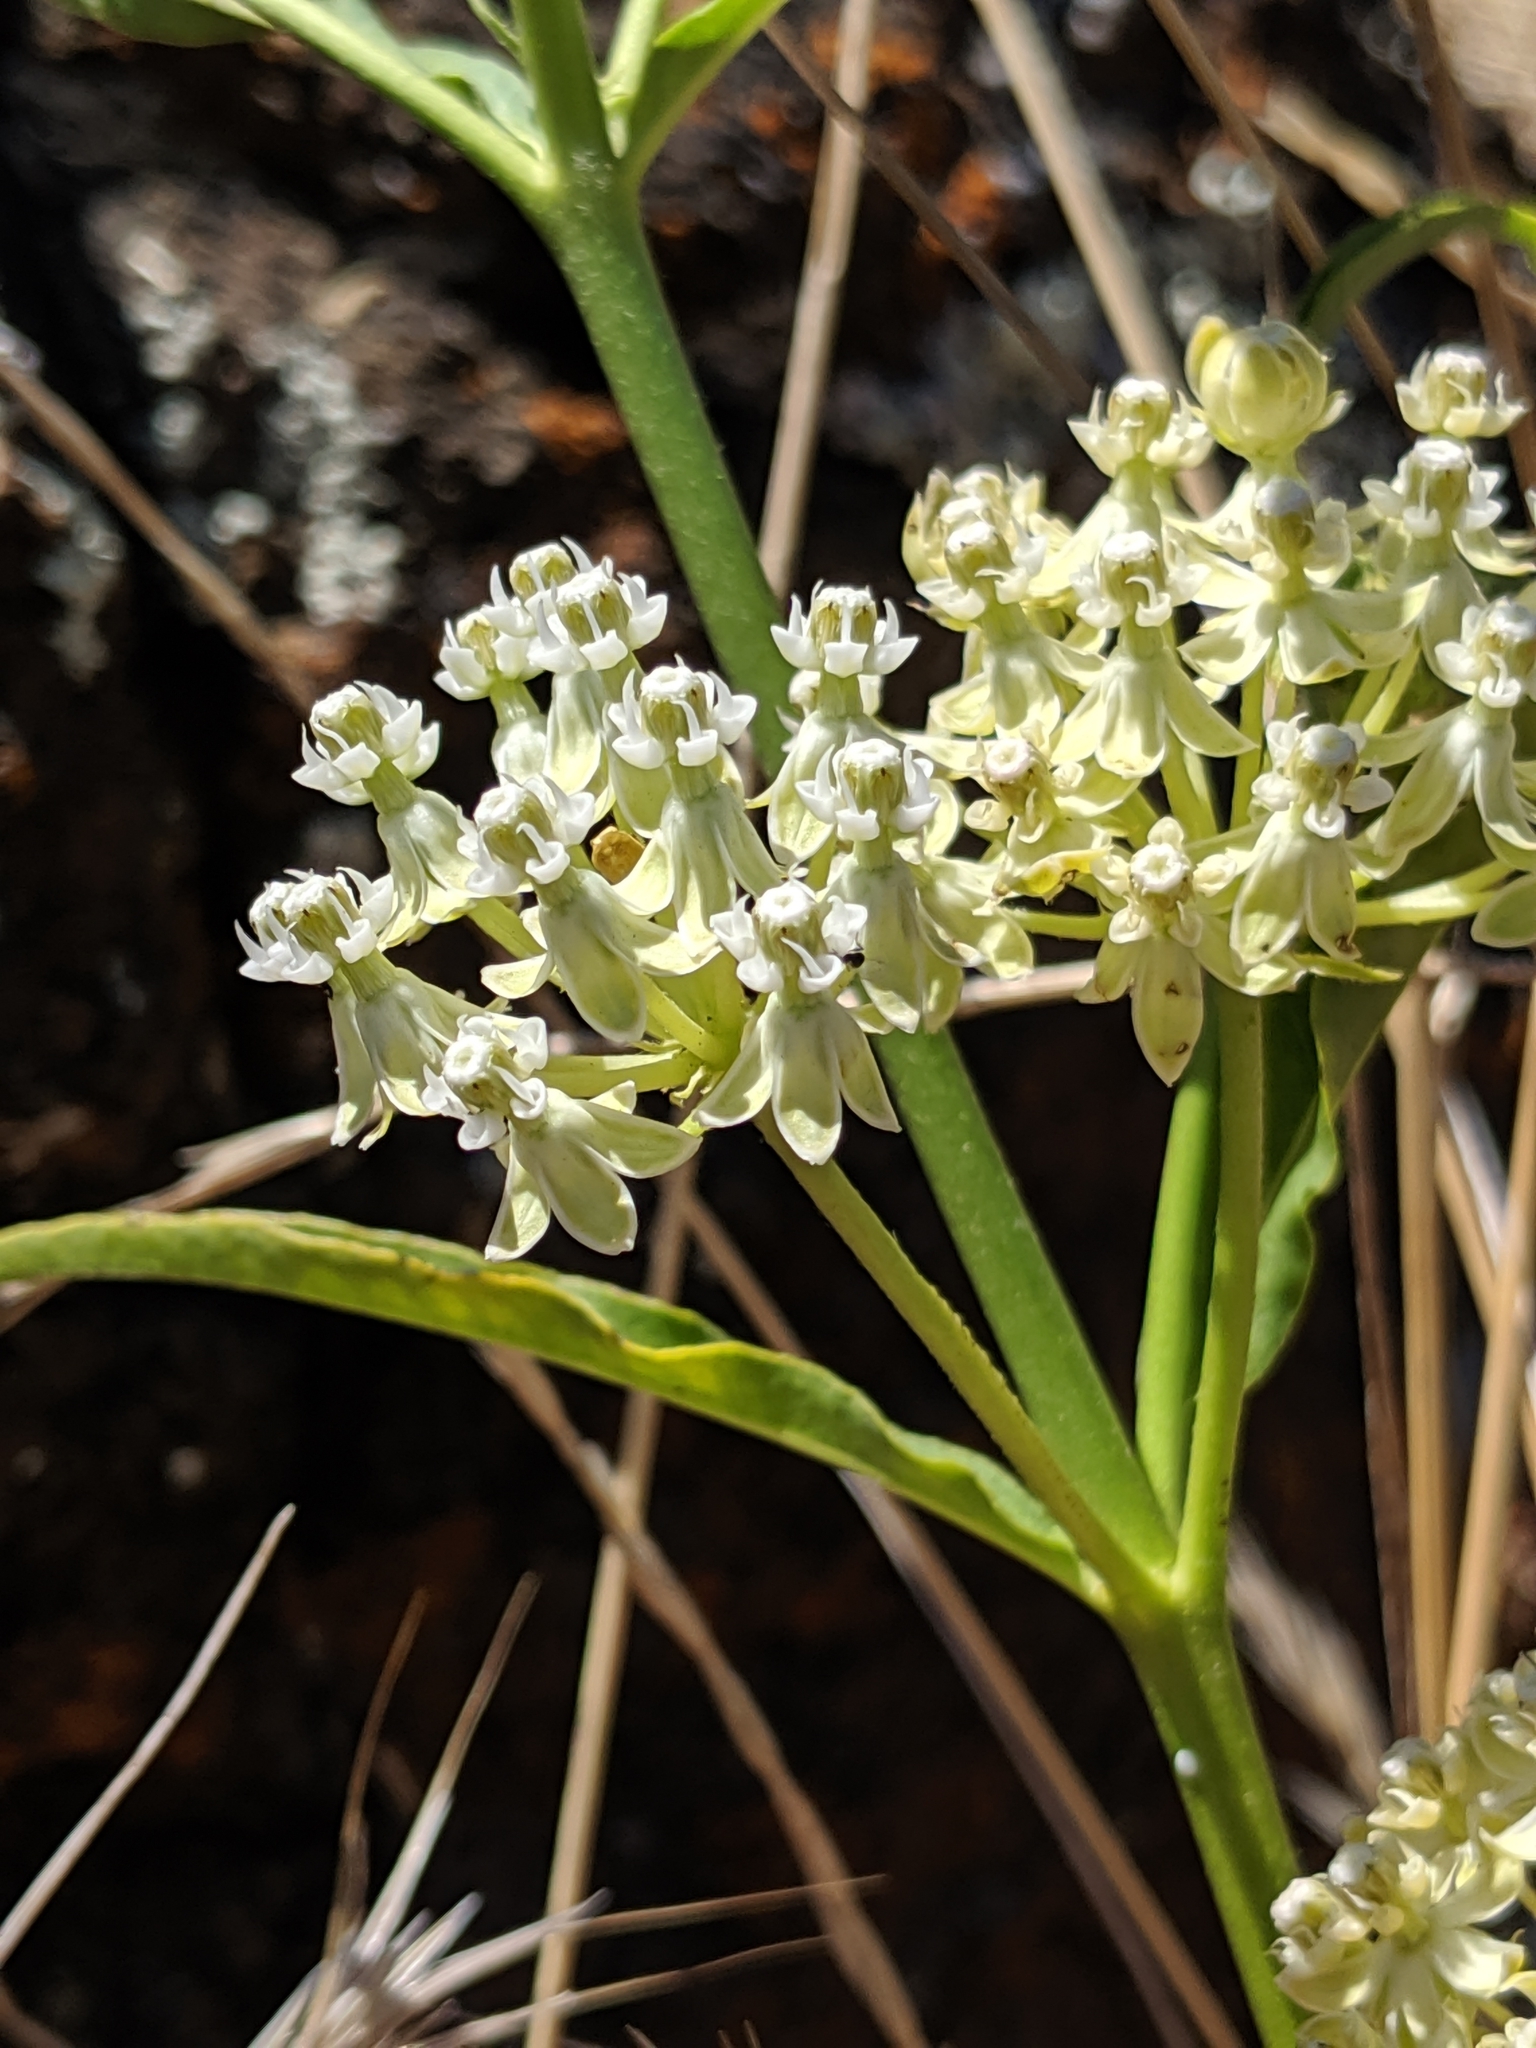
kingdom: Plantae
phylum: Tracheophyta
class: Magnoliopsida
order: Gentianales
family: Apocynaceae
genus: Asclepias
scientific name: Asclepias fascicularis
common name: Mexican milkweed
